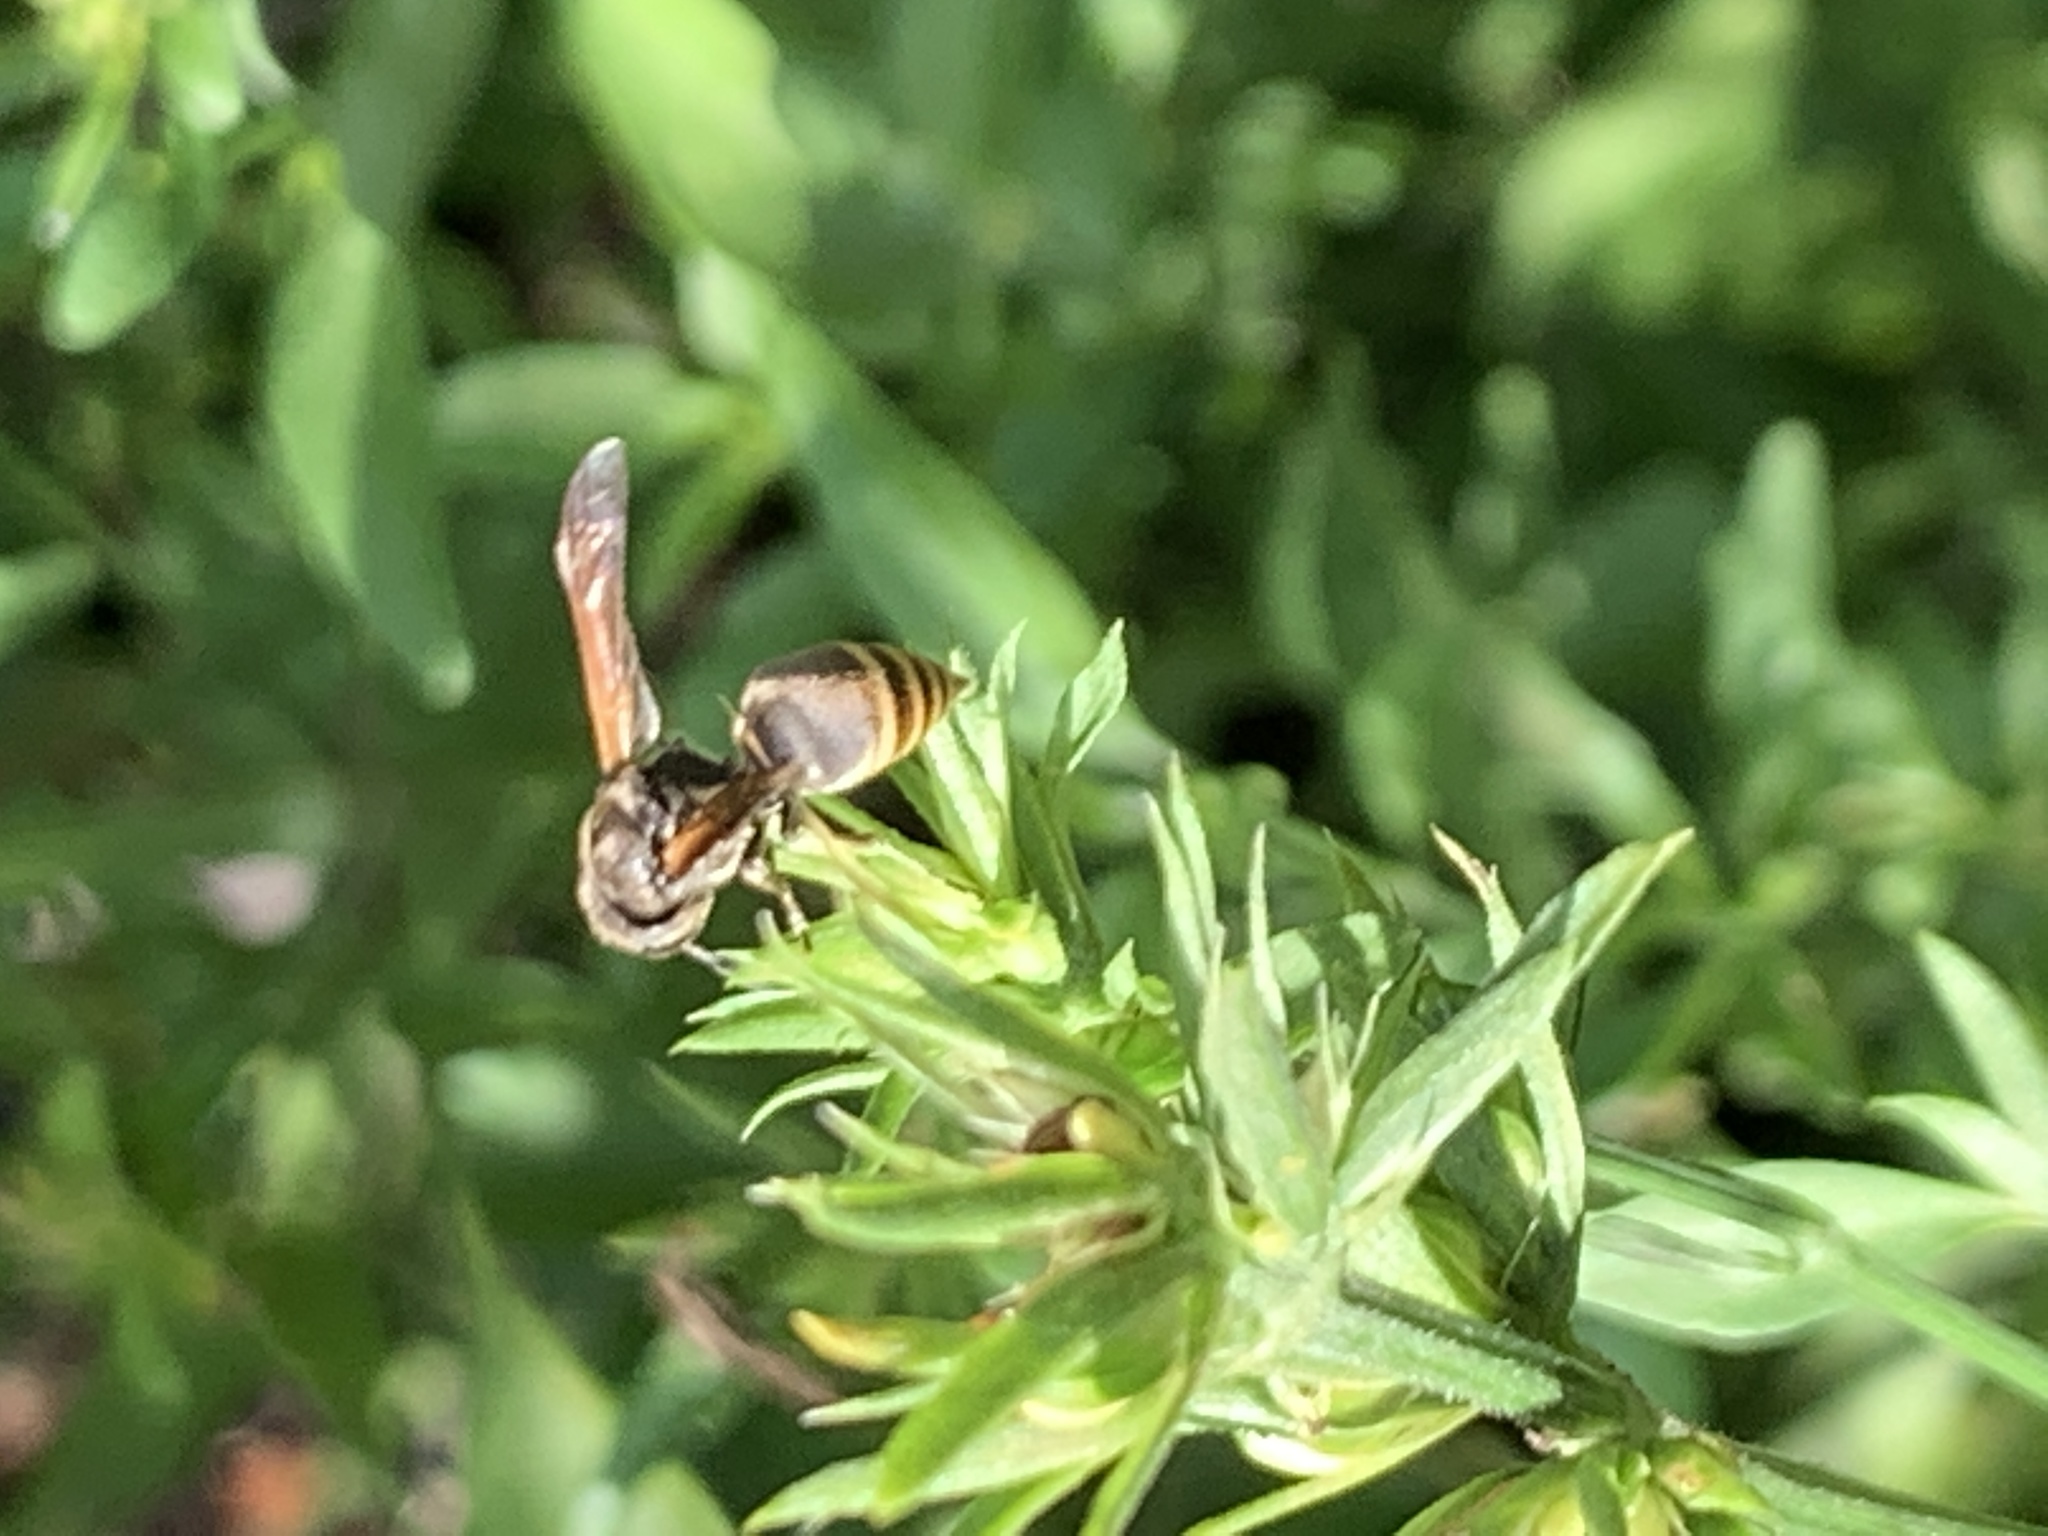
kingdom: Animalia
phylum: Arthropoda
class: Insecta
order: Hymenoptera
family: Vespidae
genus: Brachygastra
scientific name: Brachygastra lecheguana
